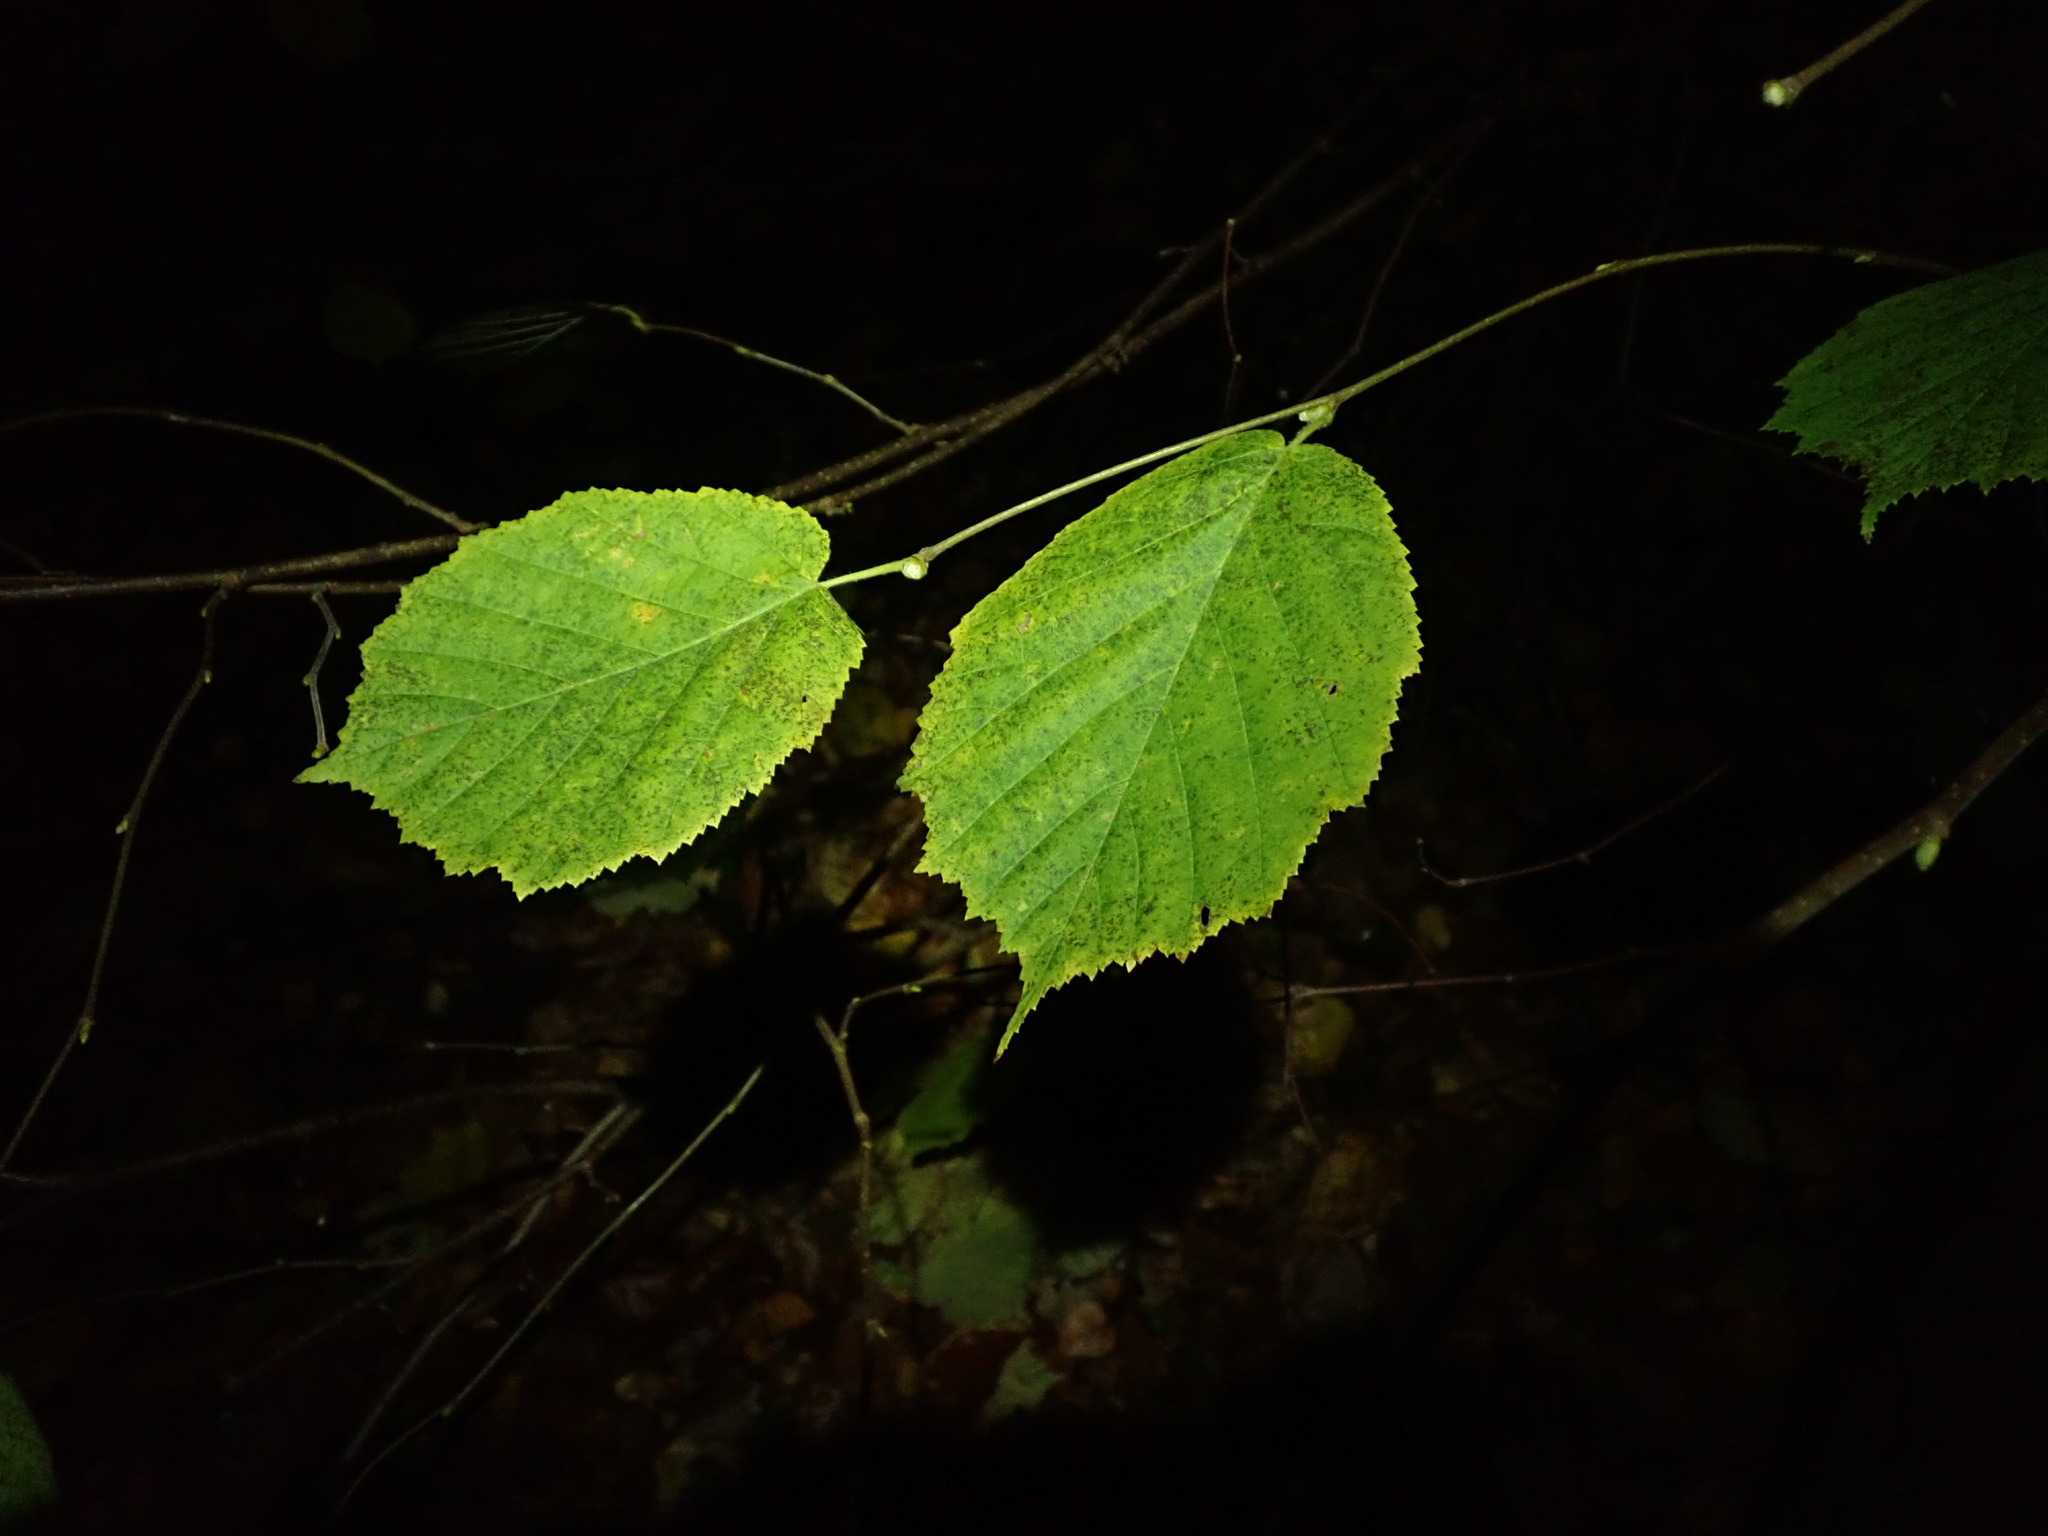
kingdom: Plantae
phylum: Tracheophyta
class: Magnoliopsida
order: Fagales
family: Betulaceae
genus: Corylus
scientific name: Corylus avellana
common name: European hazel
